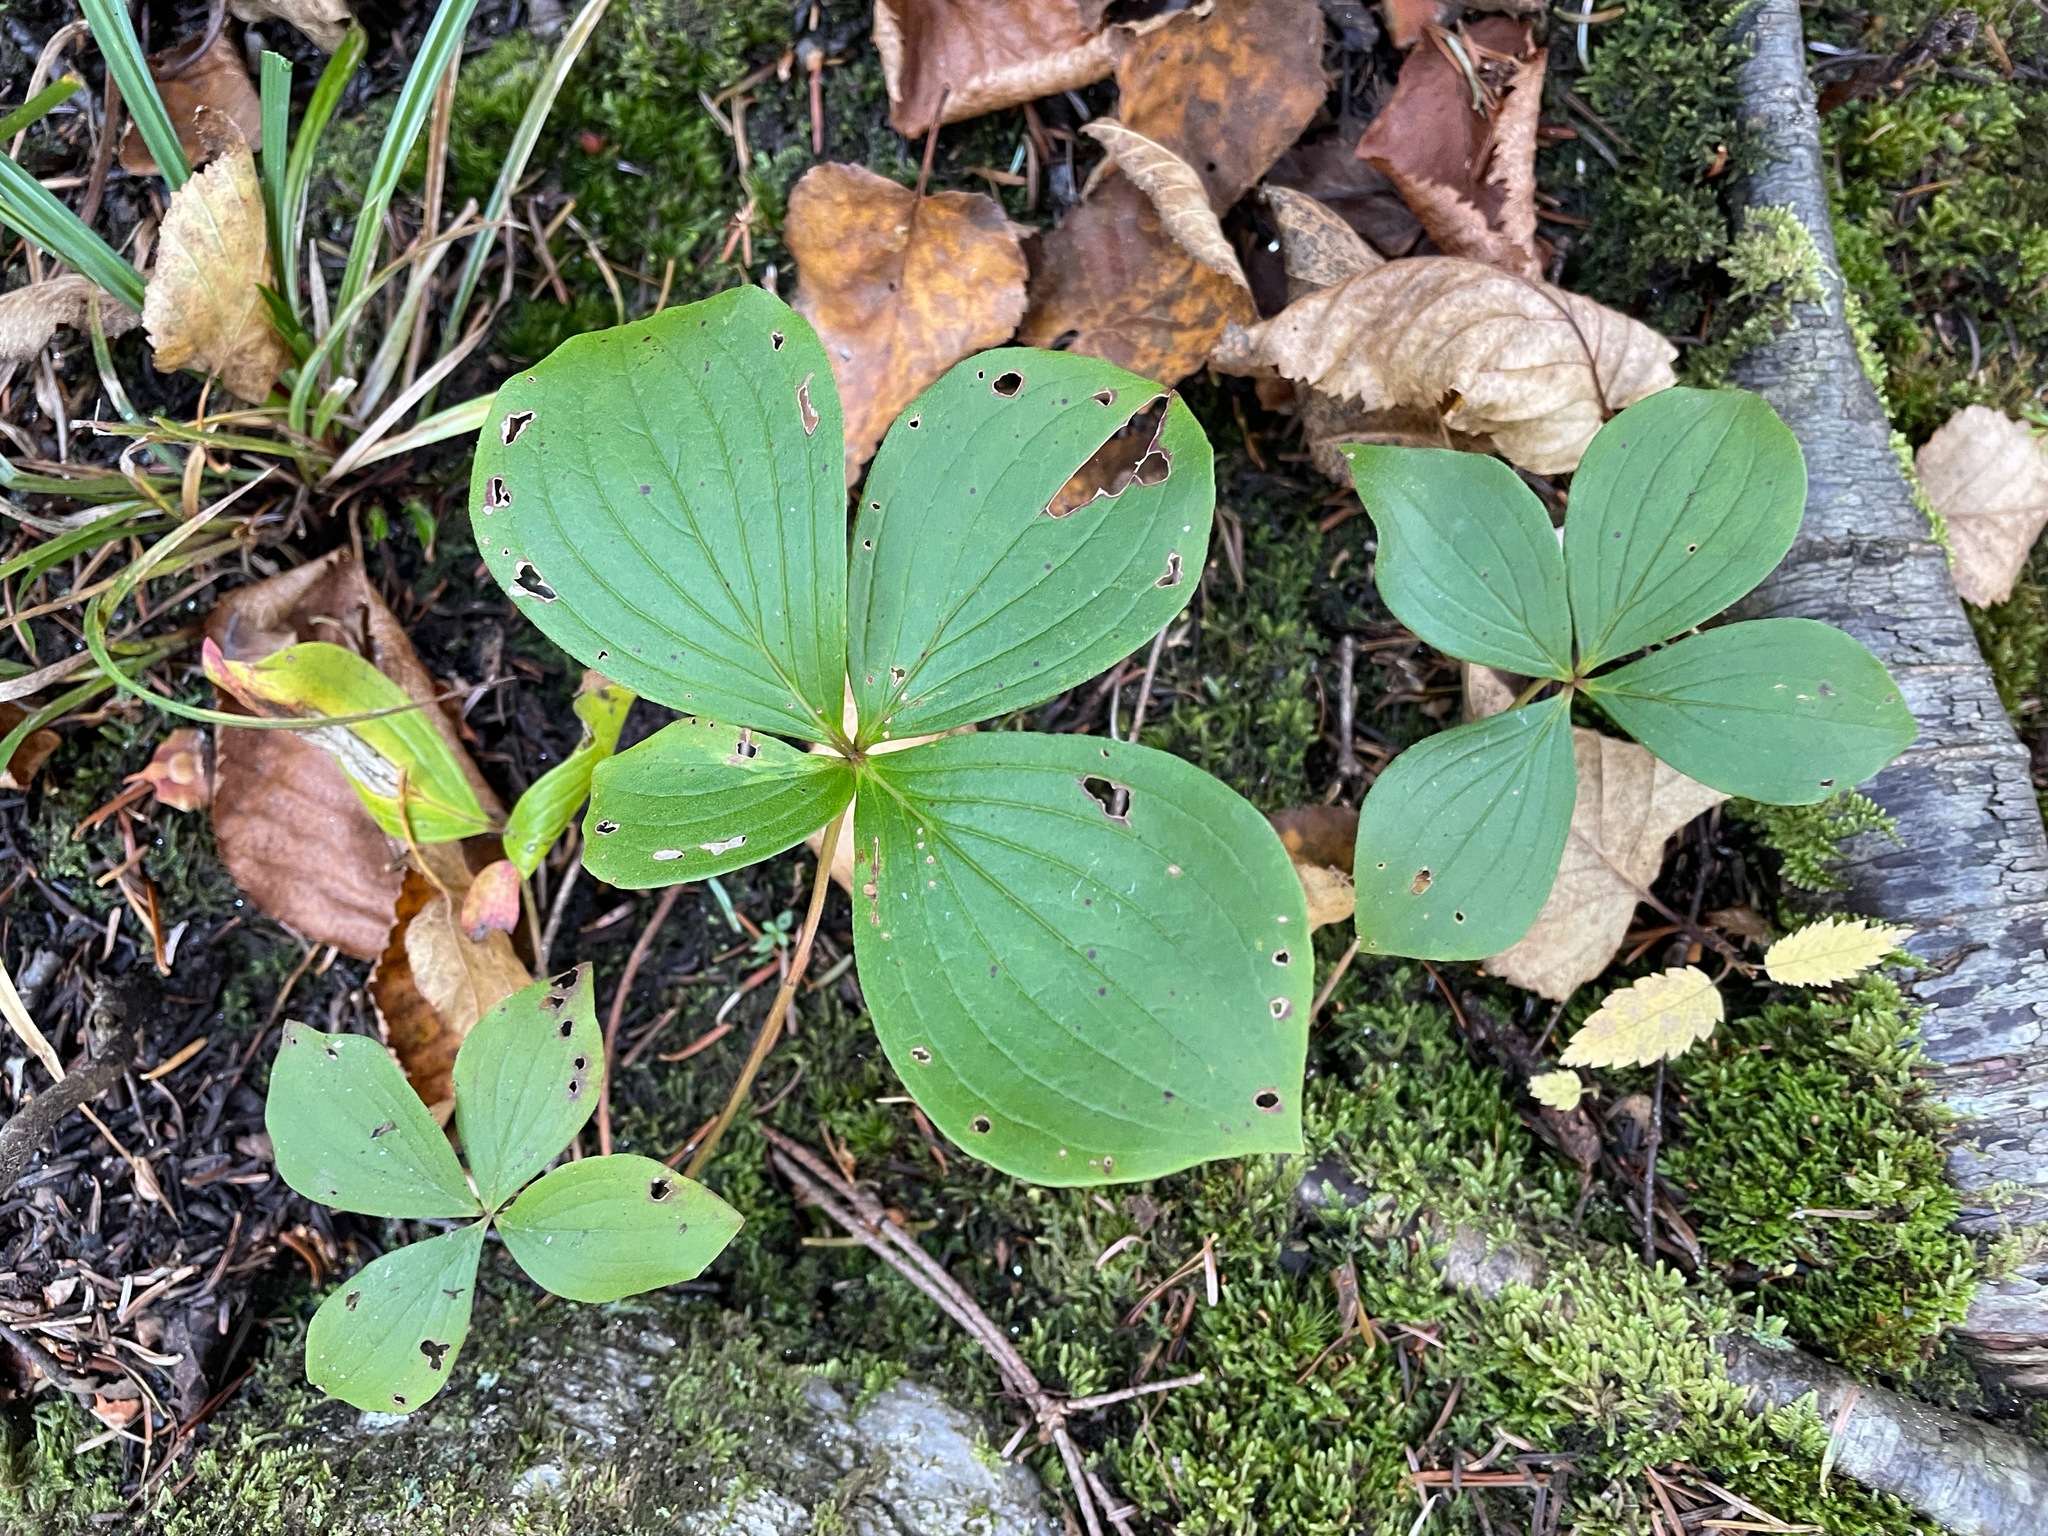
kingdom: Plantae
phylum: Tracheophyta
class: Magnoliopsida
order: Cornales
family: Cornaceae
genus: Cornus
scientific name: Cornus canadensis
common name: Creeping dogwood
